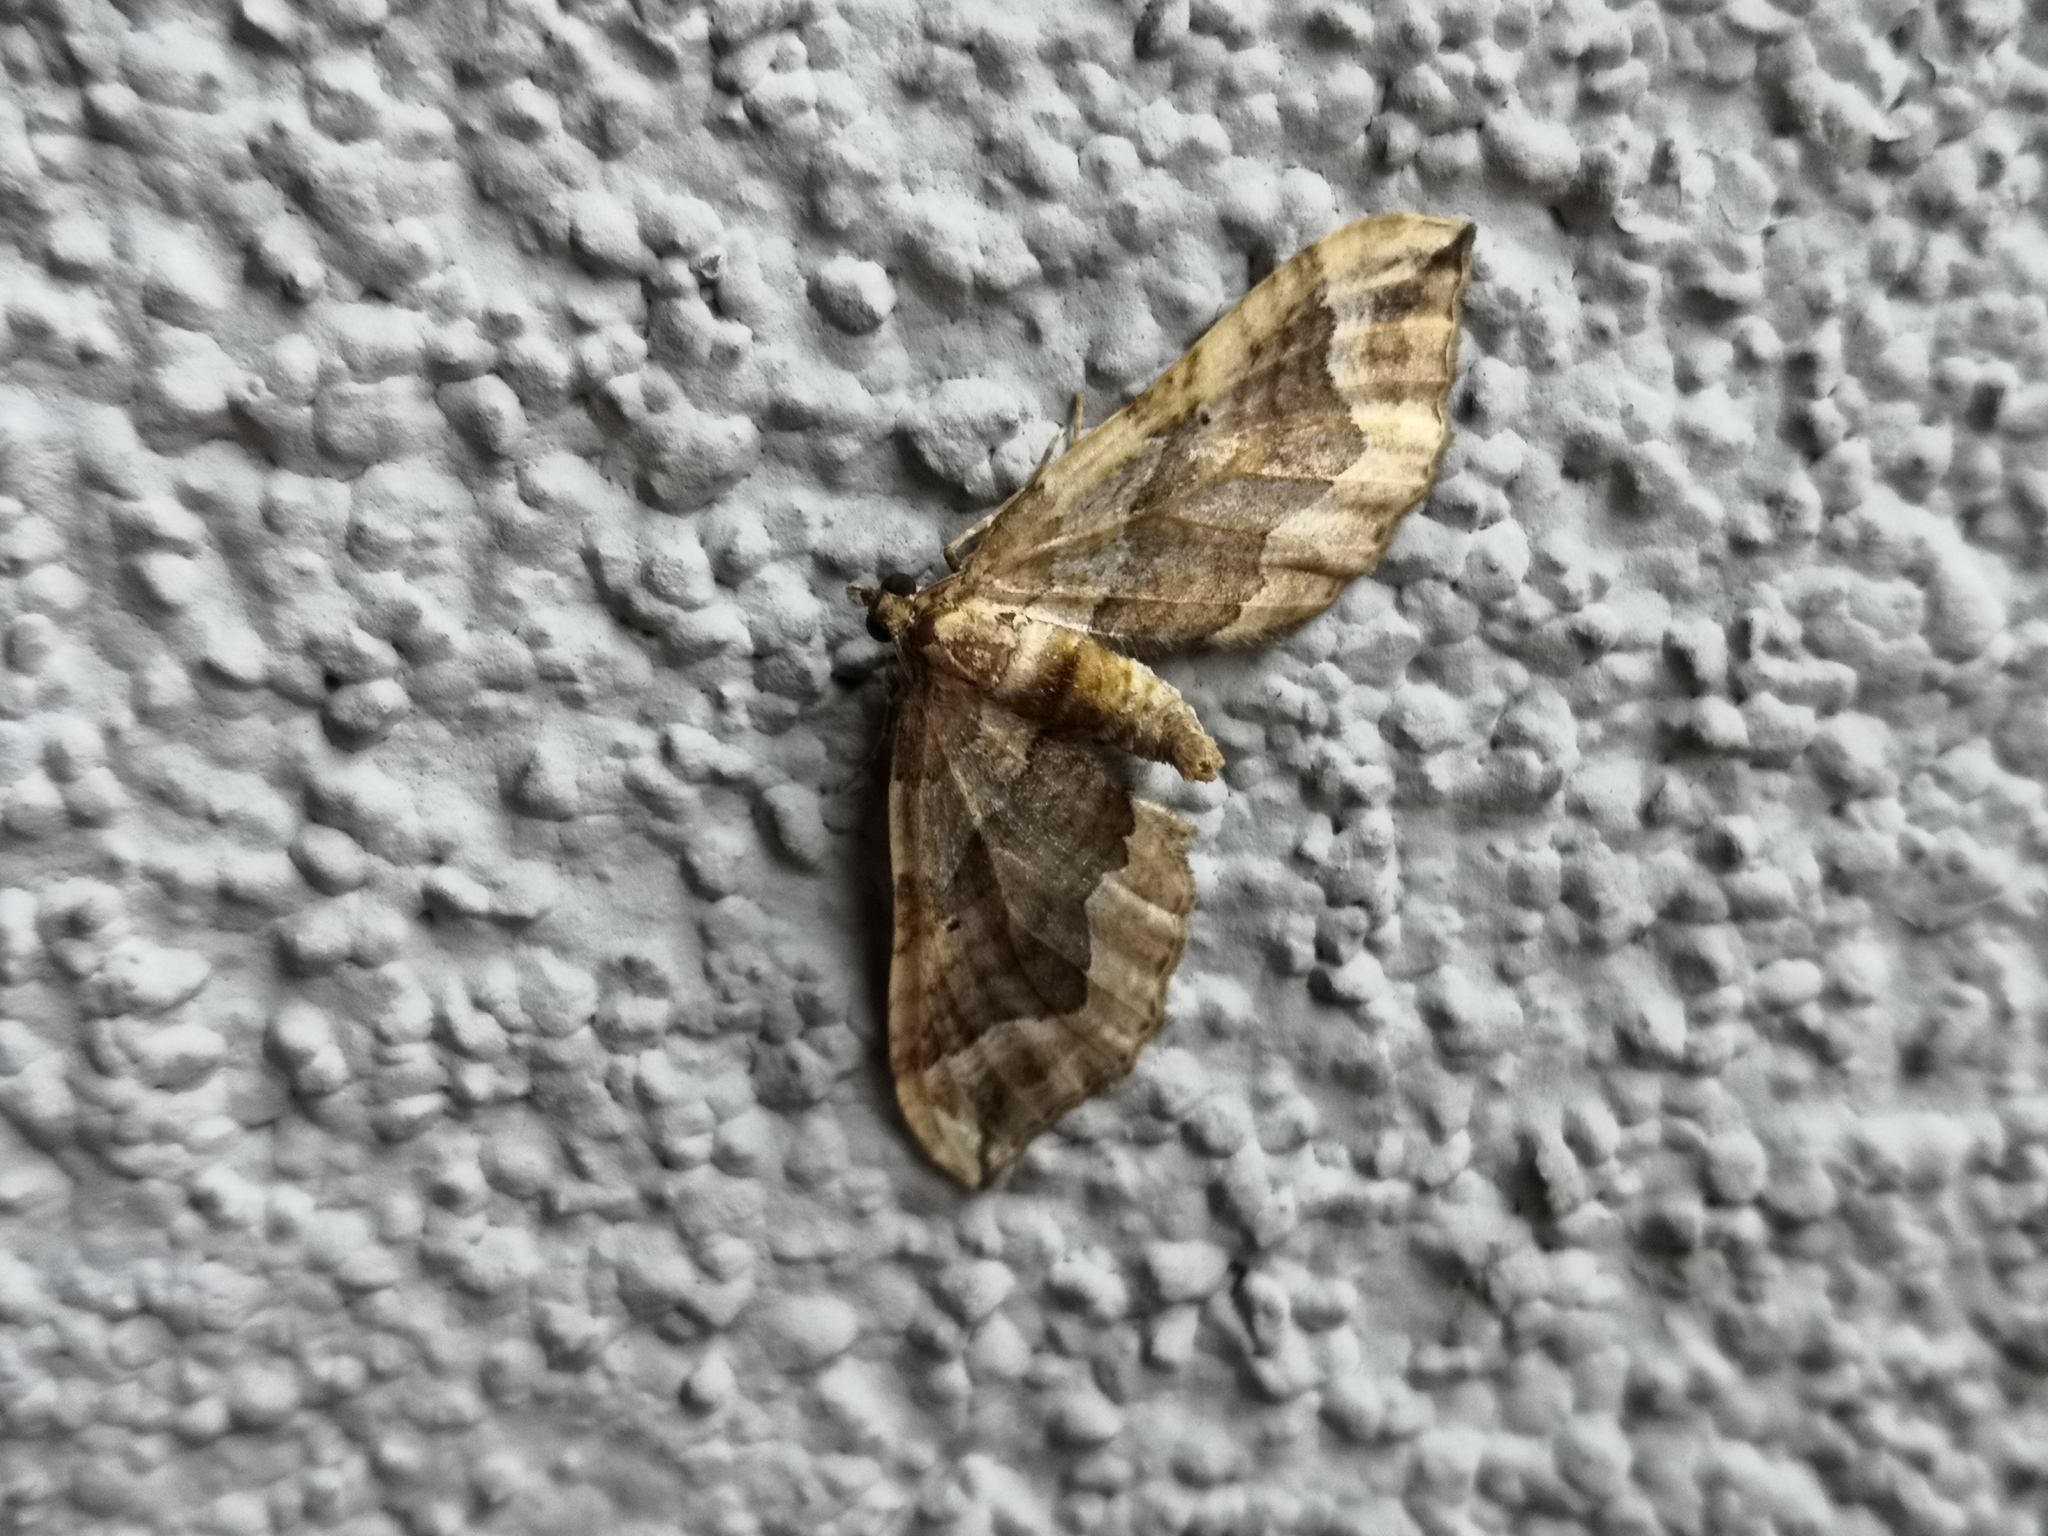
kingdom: Animalia
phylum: Arthropoda
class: Insecta
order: Lepidoptera
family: Geometridae
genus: Pelurga
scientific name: Pelurga comitata
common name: Dark spinach
